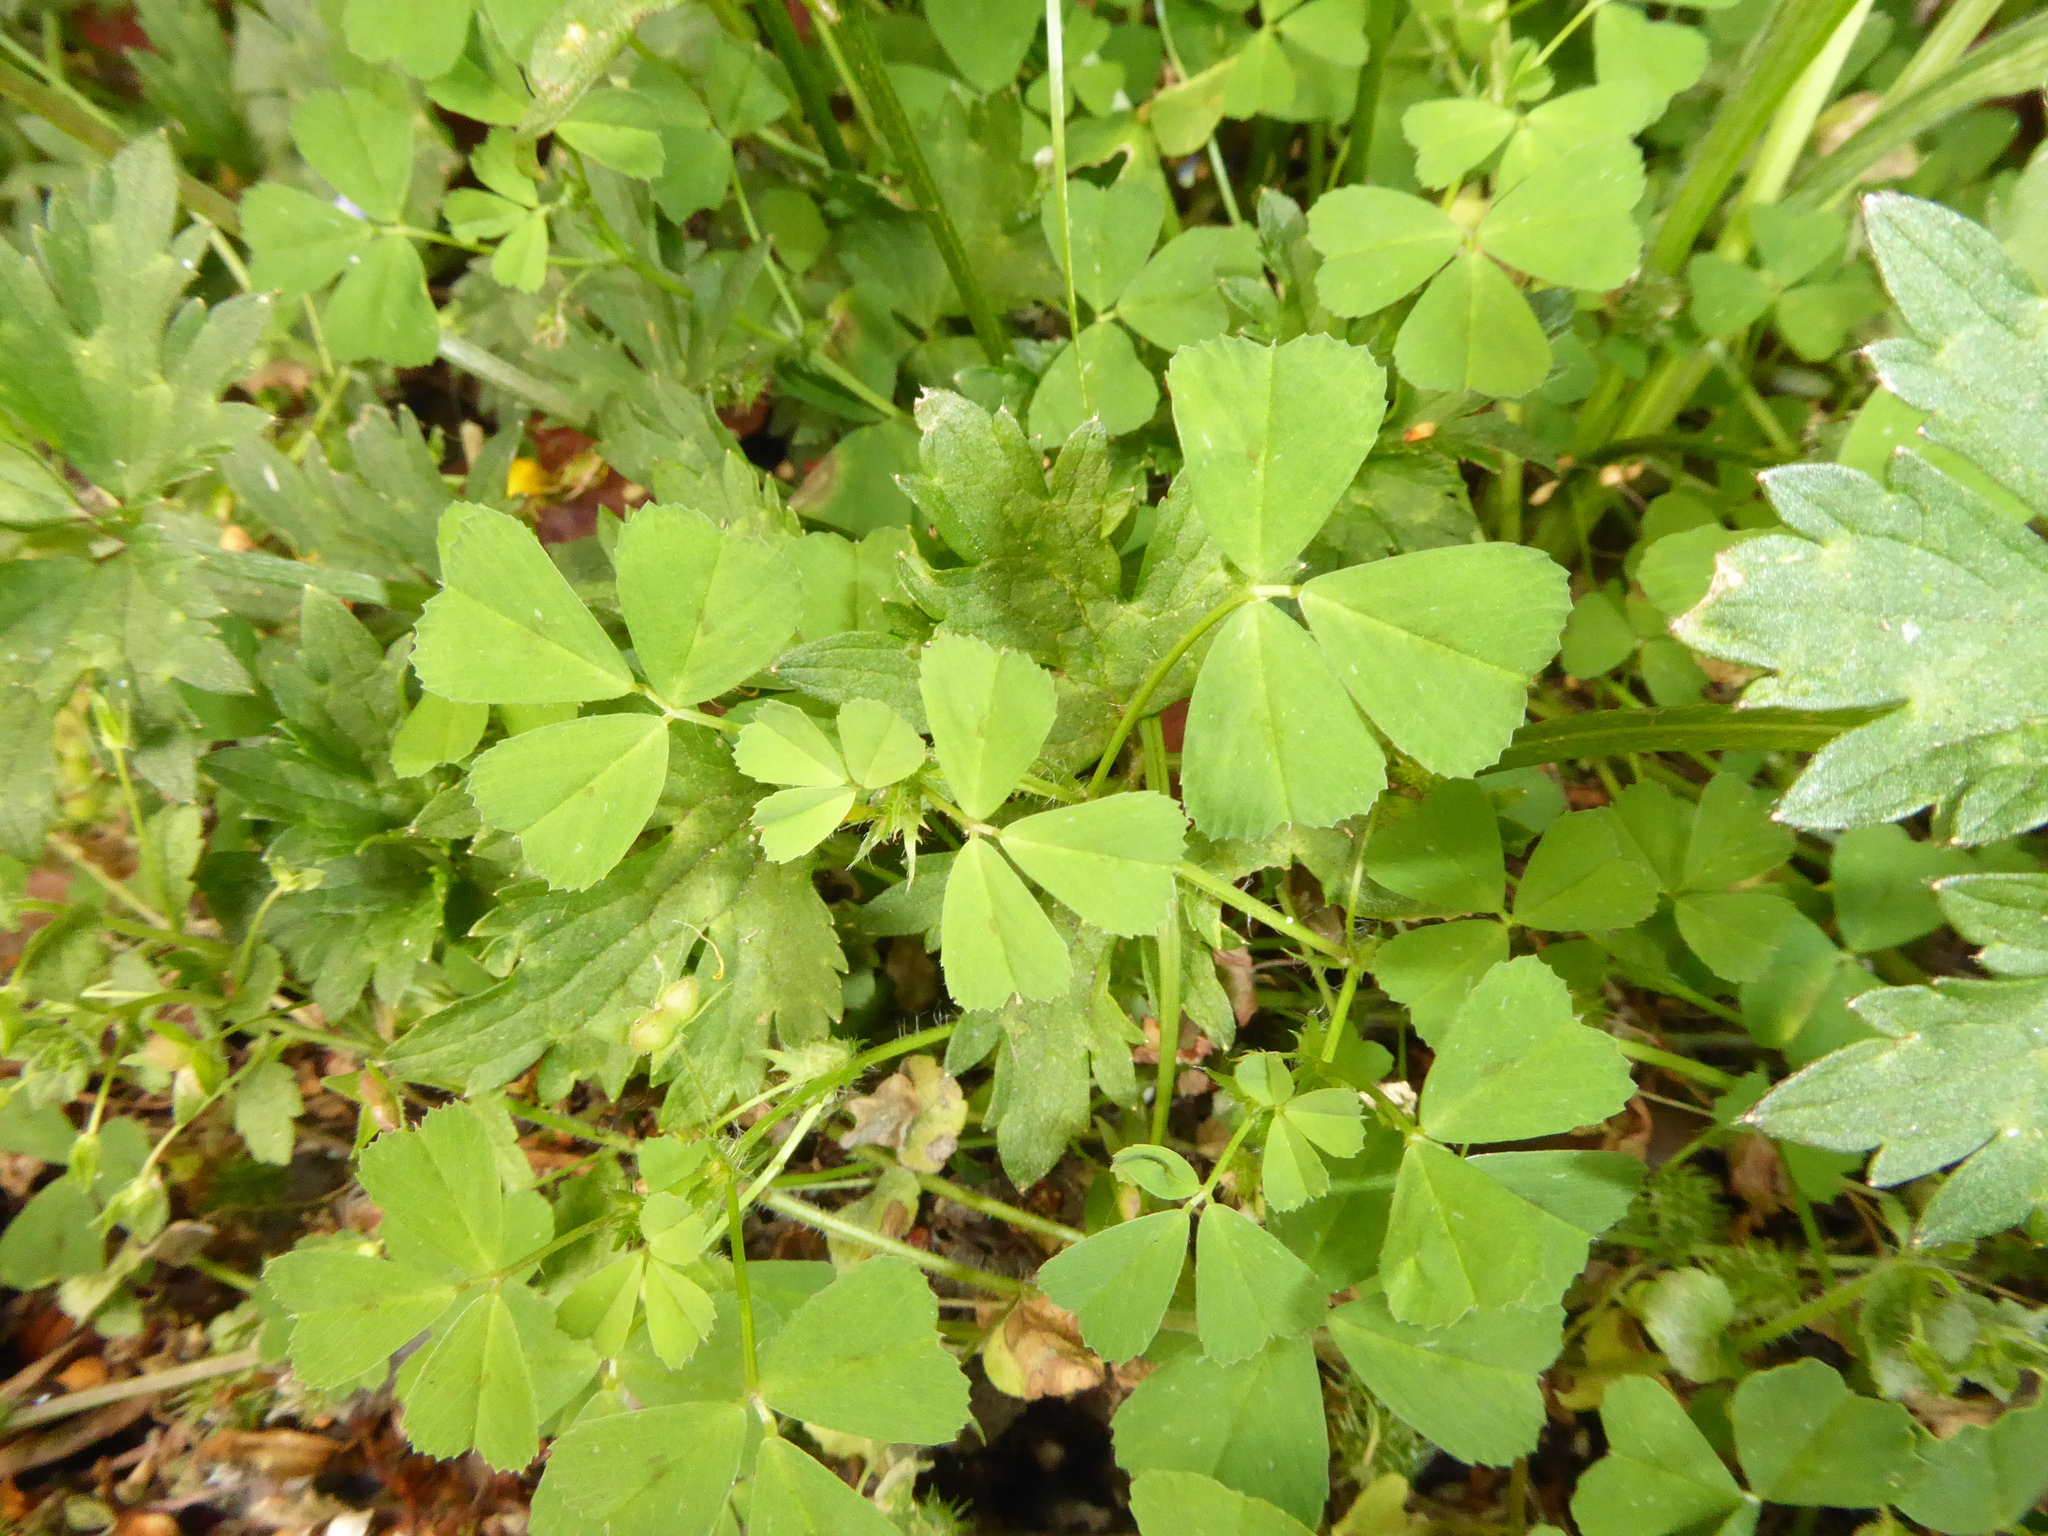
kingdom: Plantae
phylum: Tracheophyta
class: Magnoliopsida
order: Fabales
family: Fabaceae
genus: Medicago
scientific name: Medicago arabica
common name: Spotted medick
